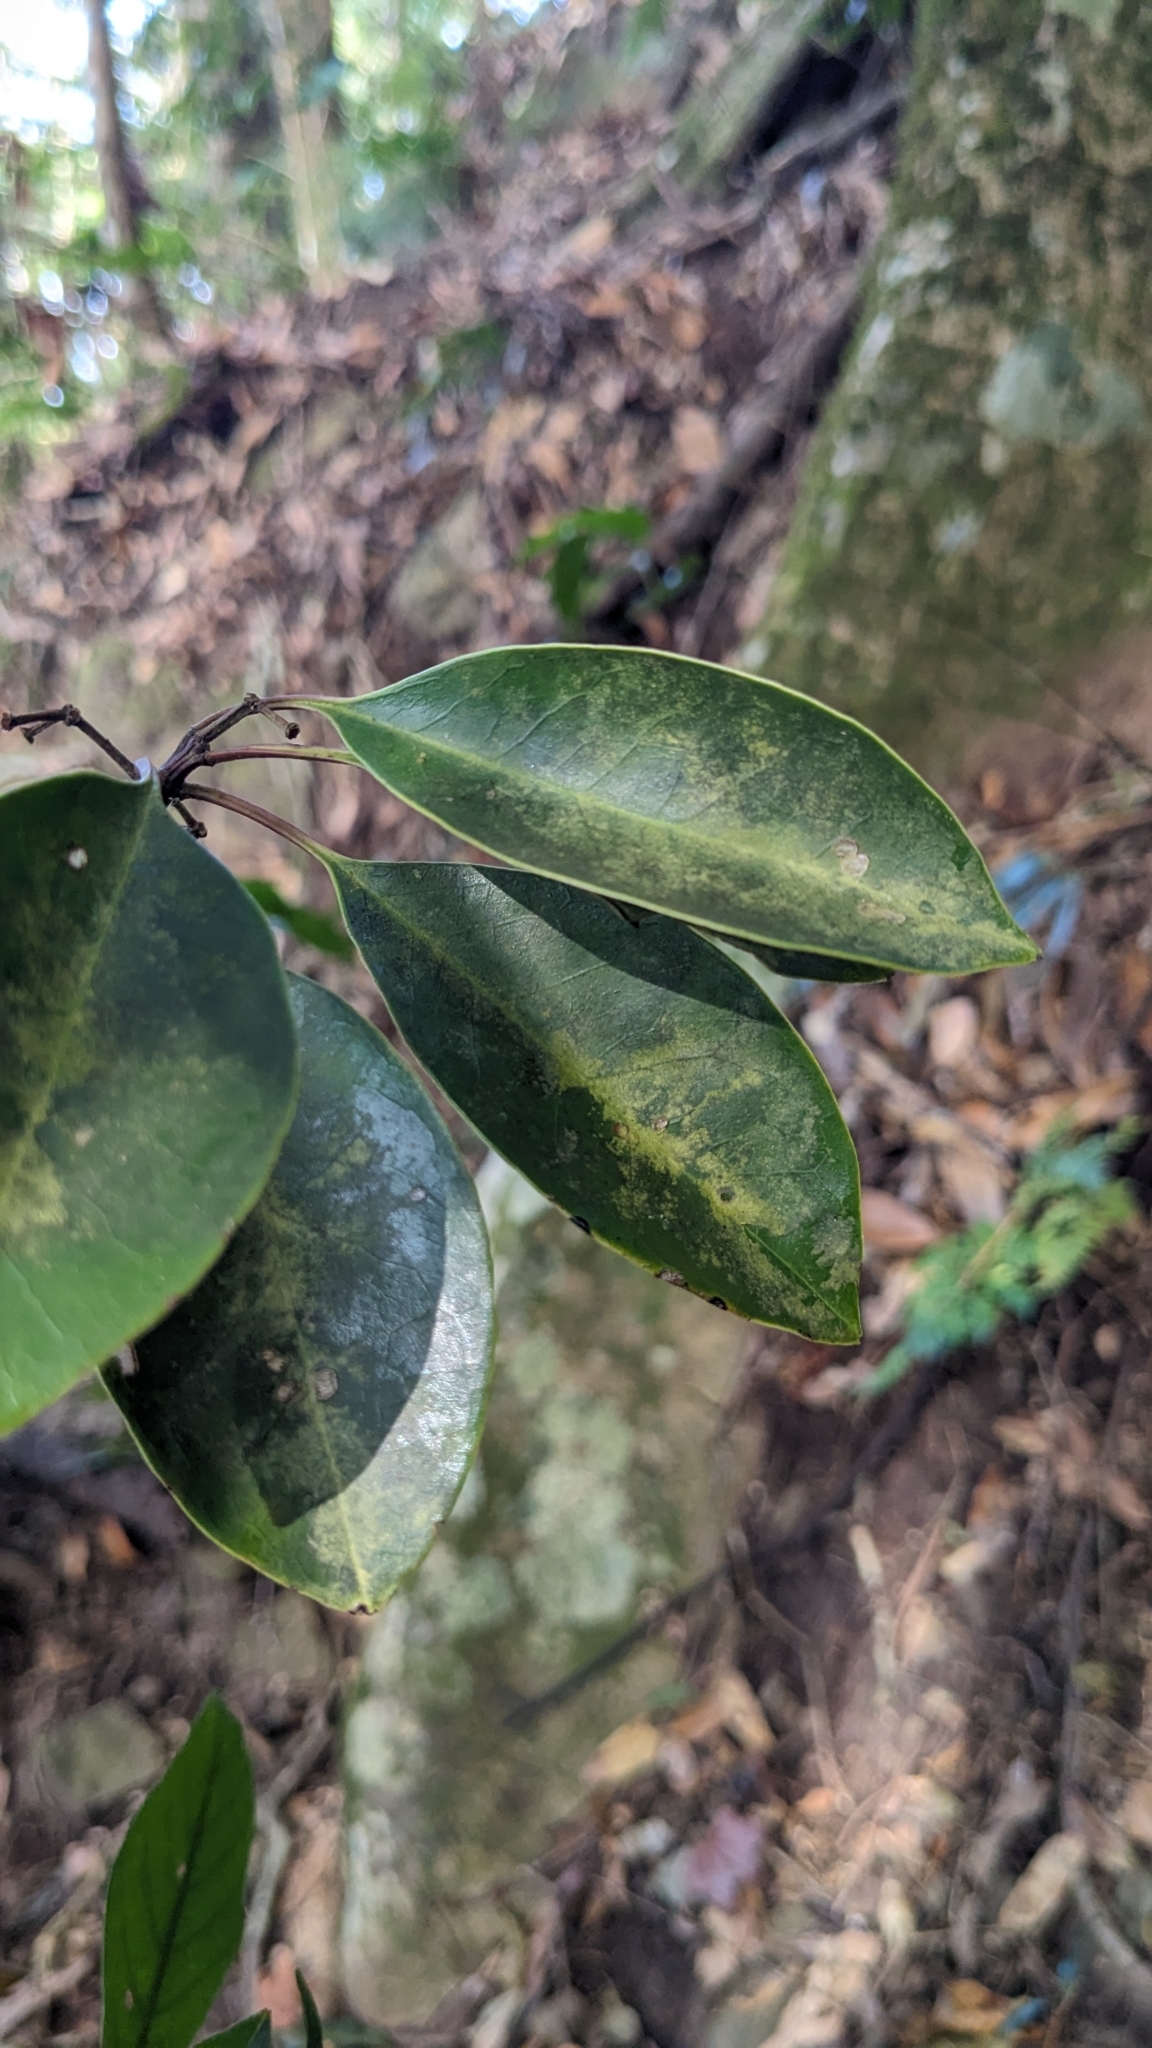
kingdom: Plantae
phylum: Tracheophyta
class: Magnoliopsida
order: Aquifoliales
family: Aquifoliaceae
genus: Ilex
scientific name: Ilex rotunda
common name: Kurogane holly
